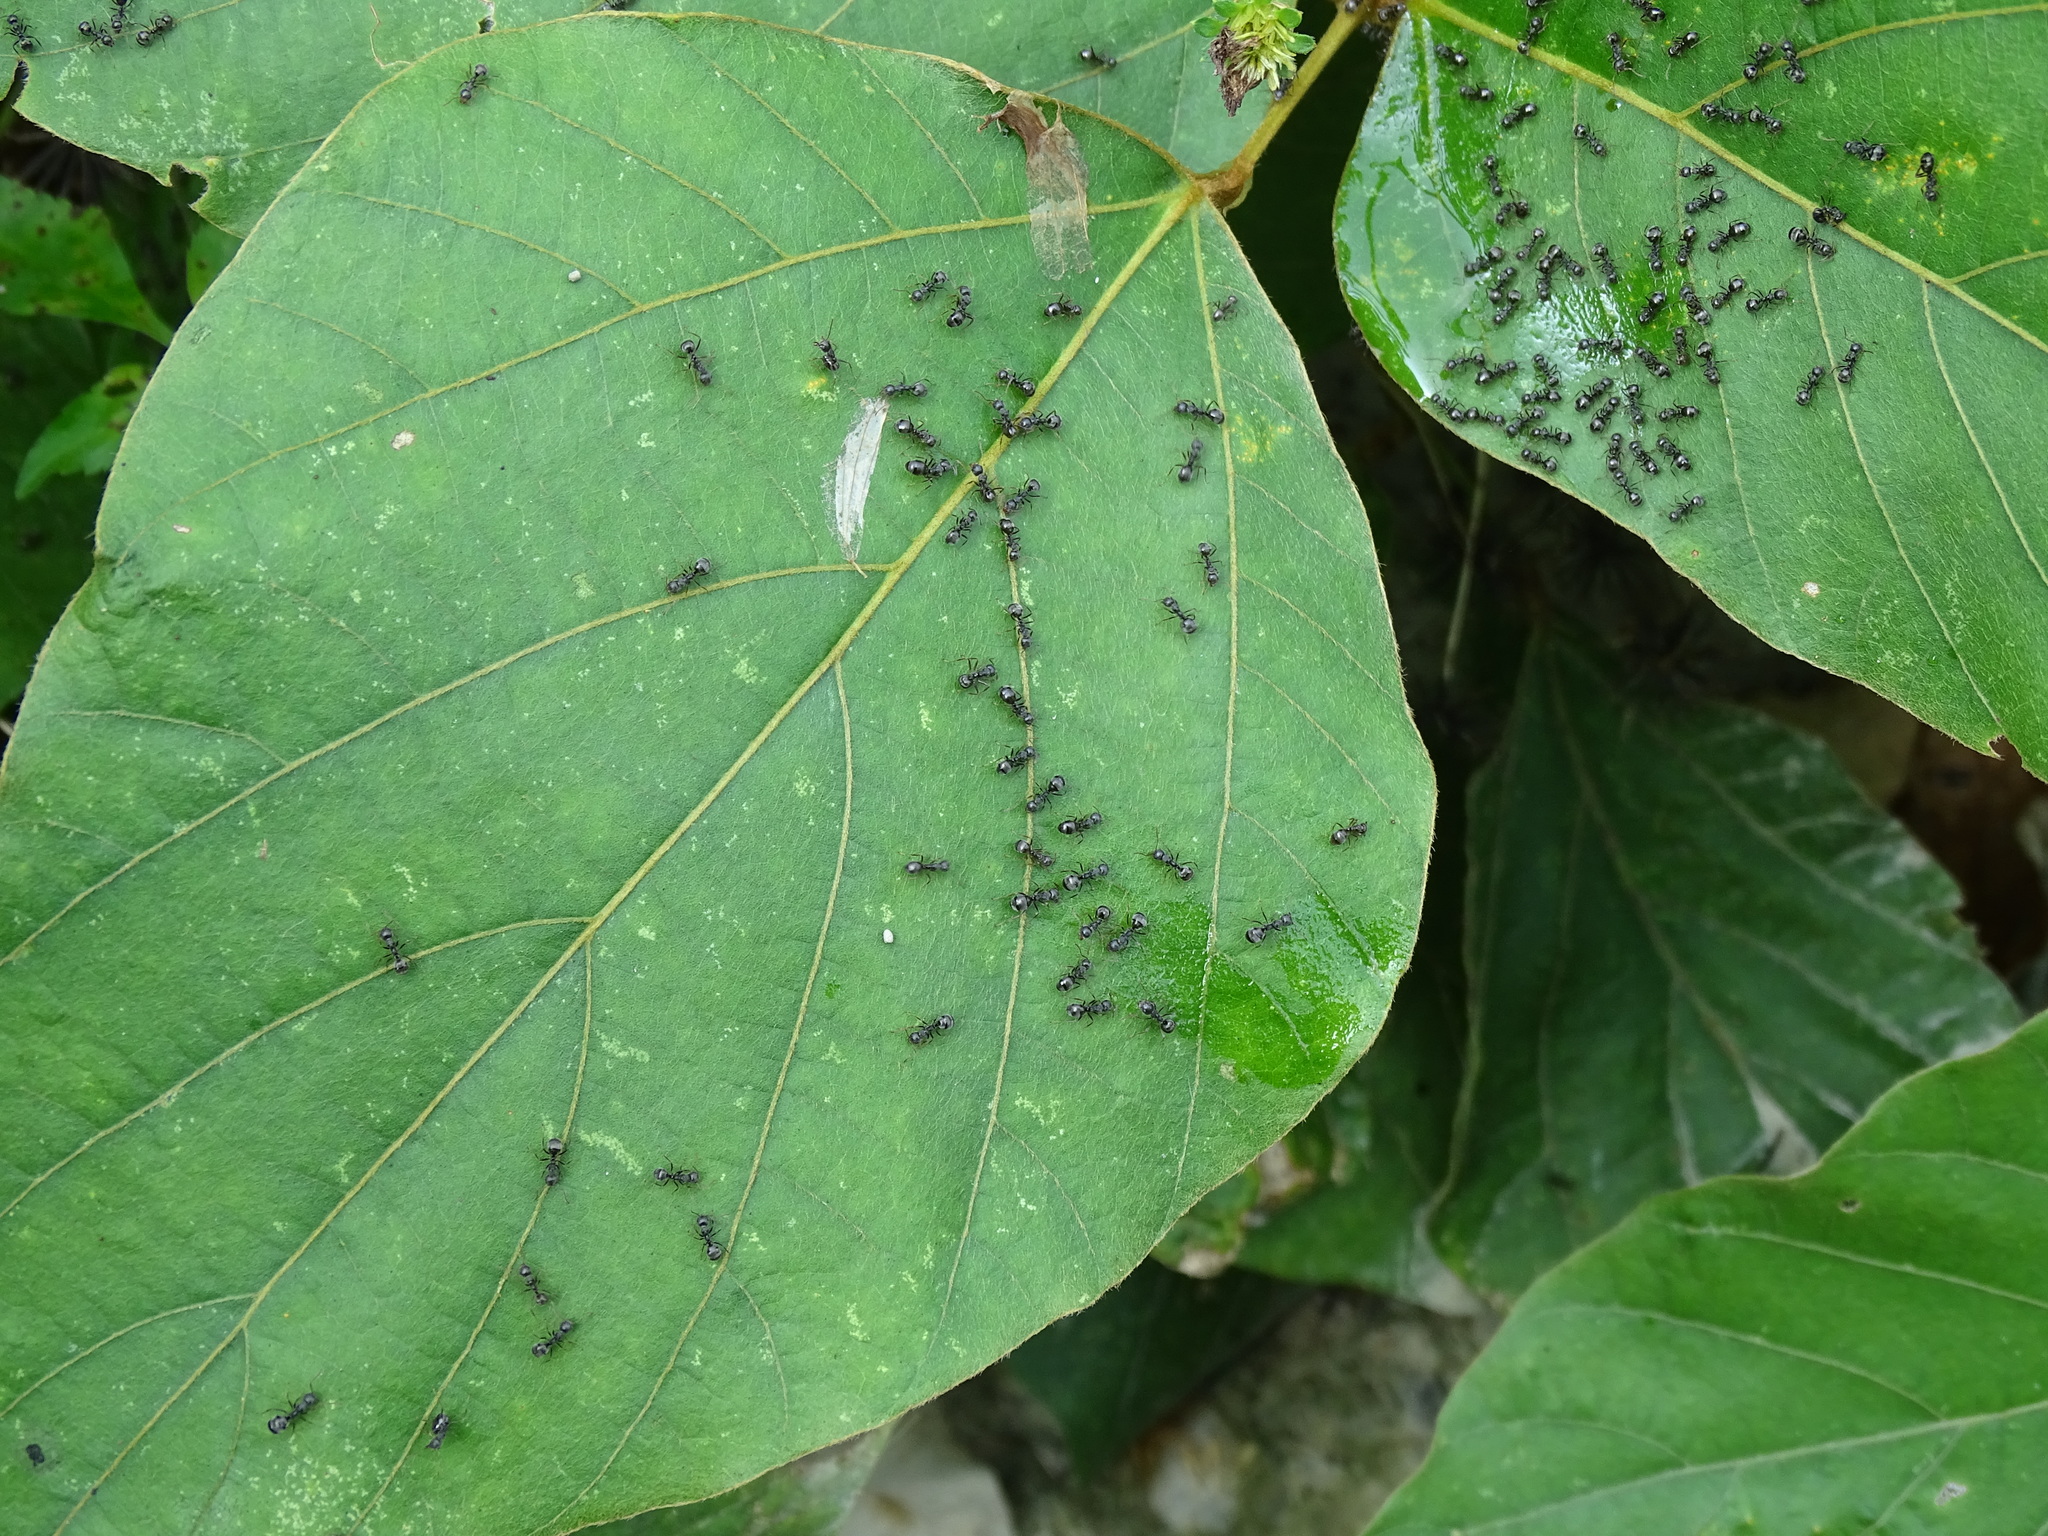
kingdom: Animalia
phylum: Arthropoda
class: Insecta
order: Hymenoptera
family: Formicidae
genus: Dolichoderus
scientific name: Dolichoderus thoracicus
